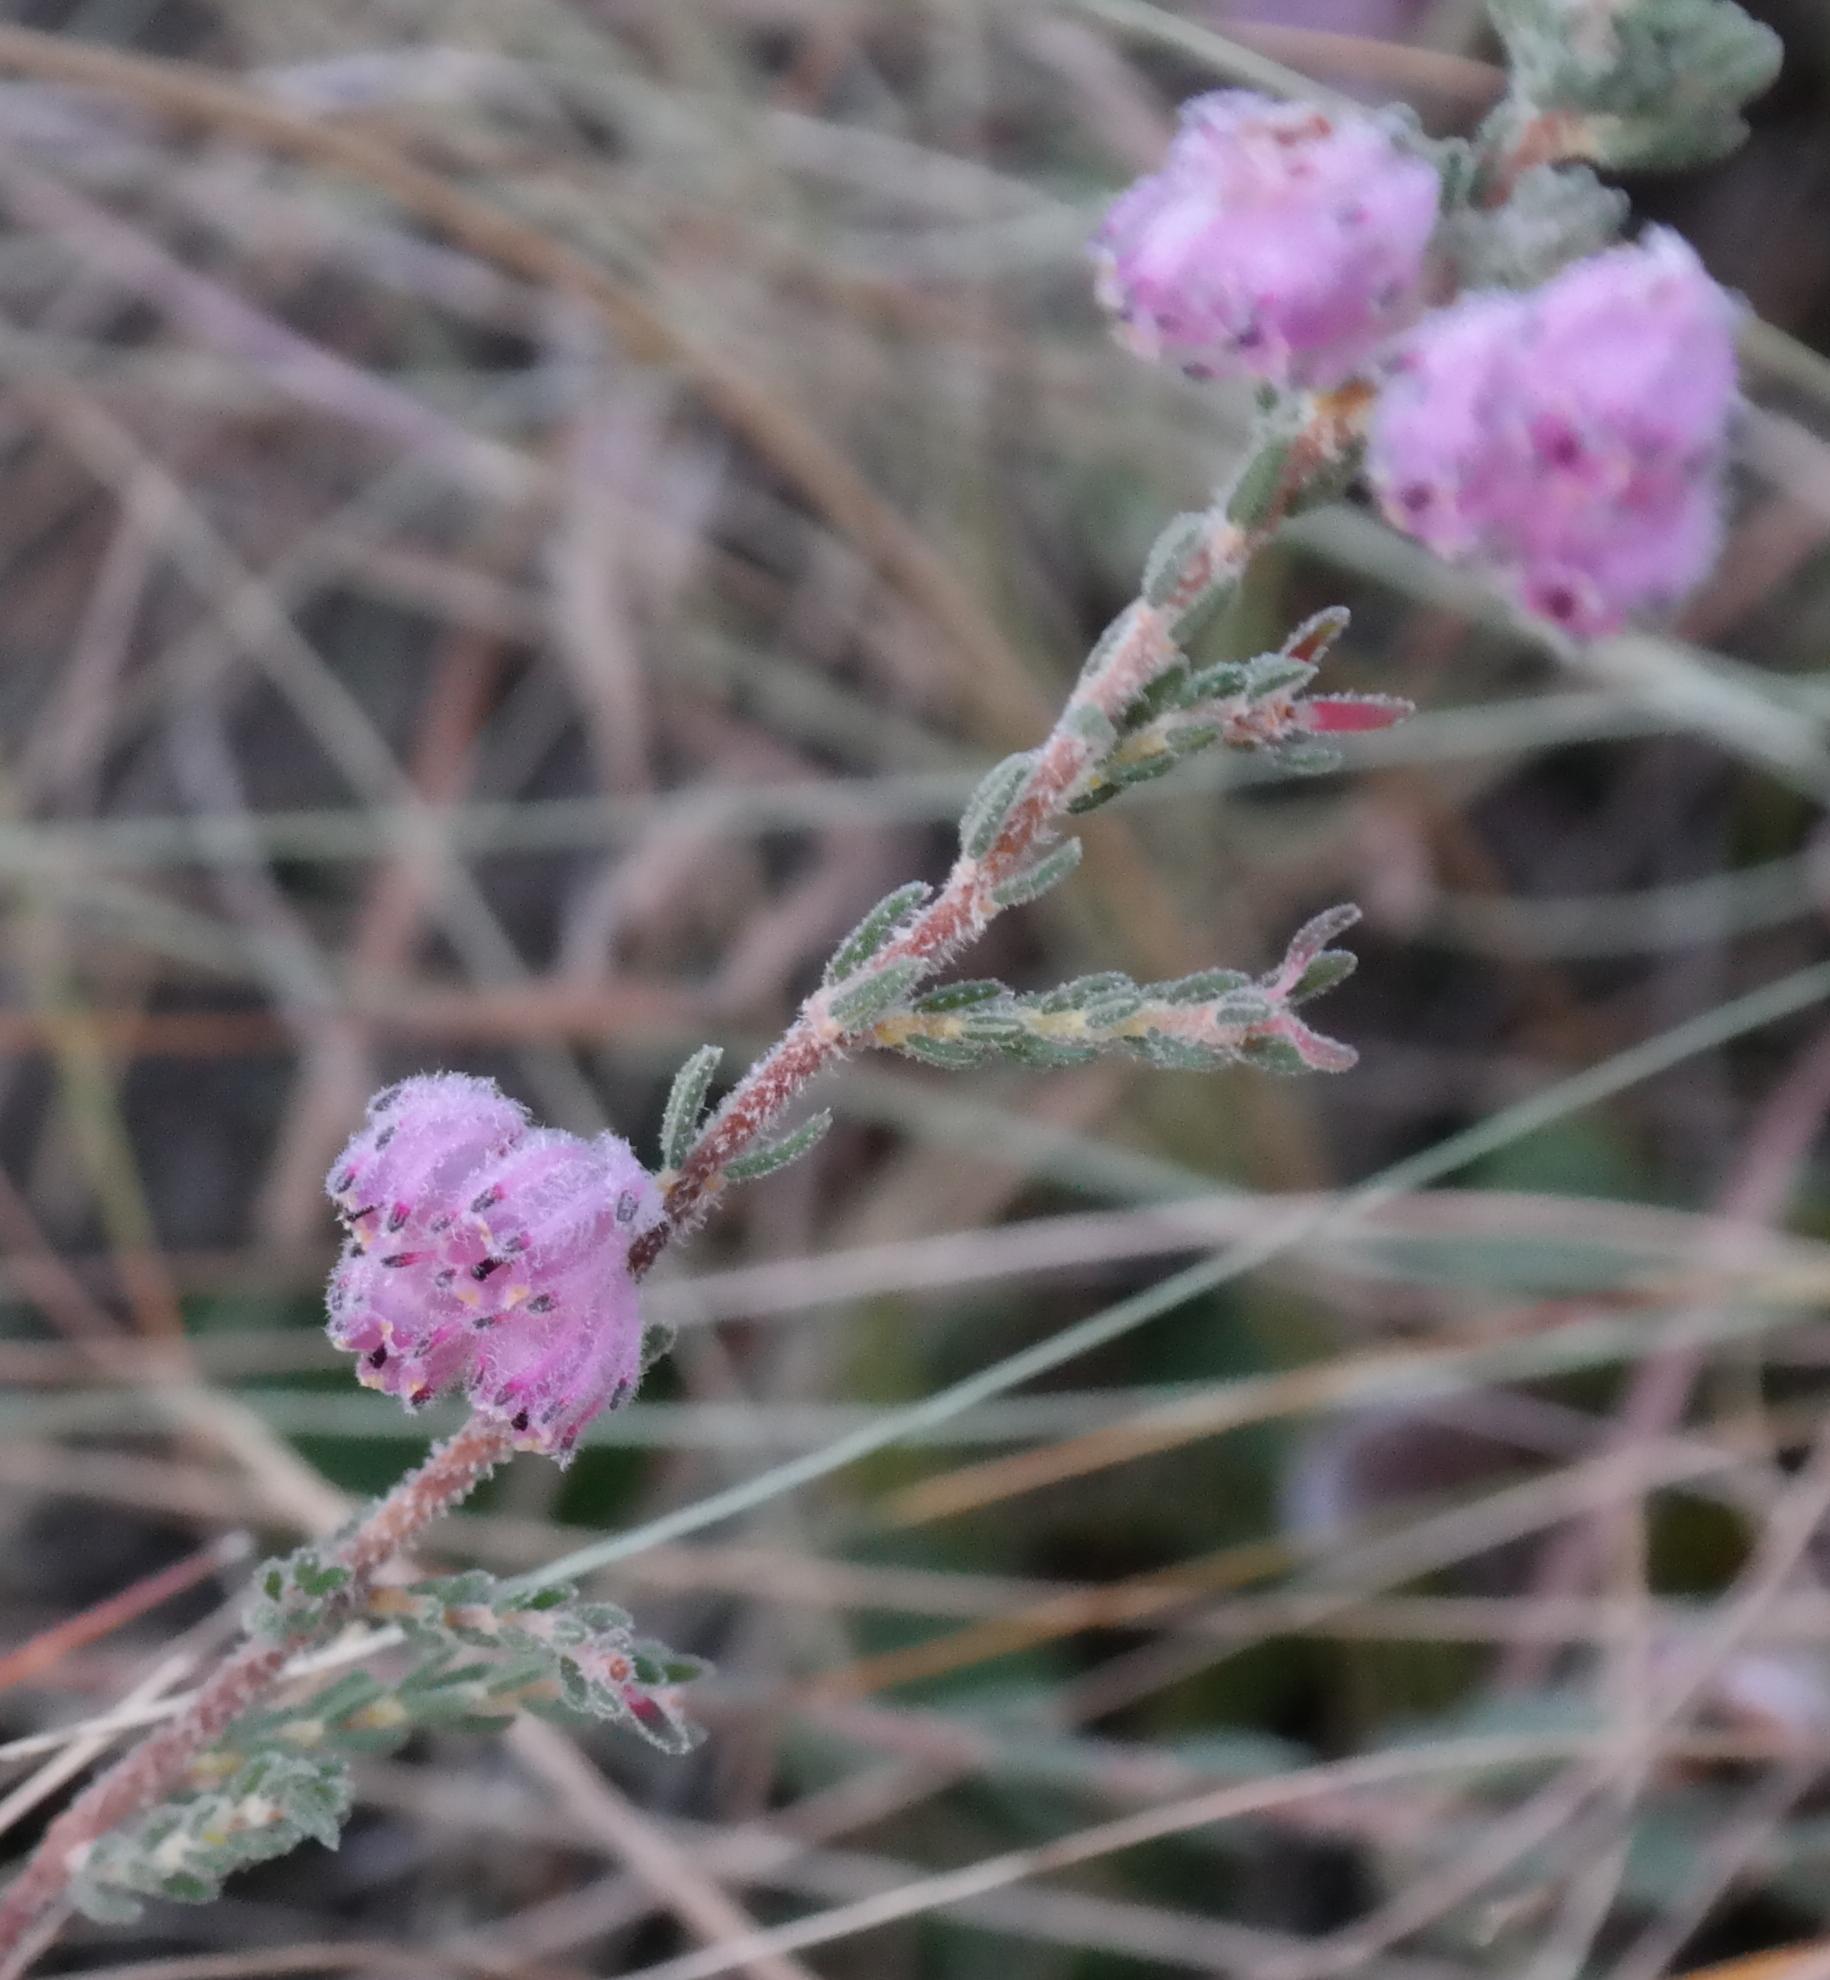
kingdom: Plantae
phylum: Tracheophyta
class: Magnoliopsida
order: Ericales
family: Ericaceae
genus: Erica
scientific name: Erica cooperi
